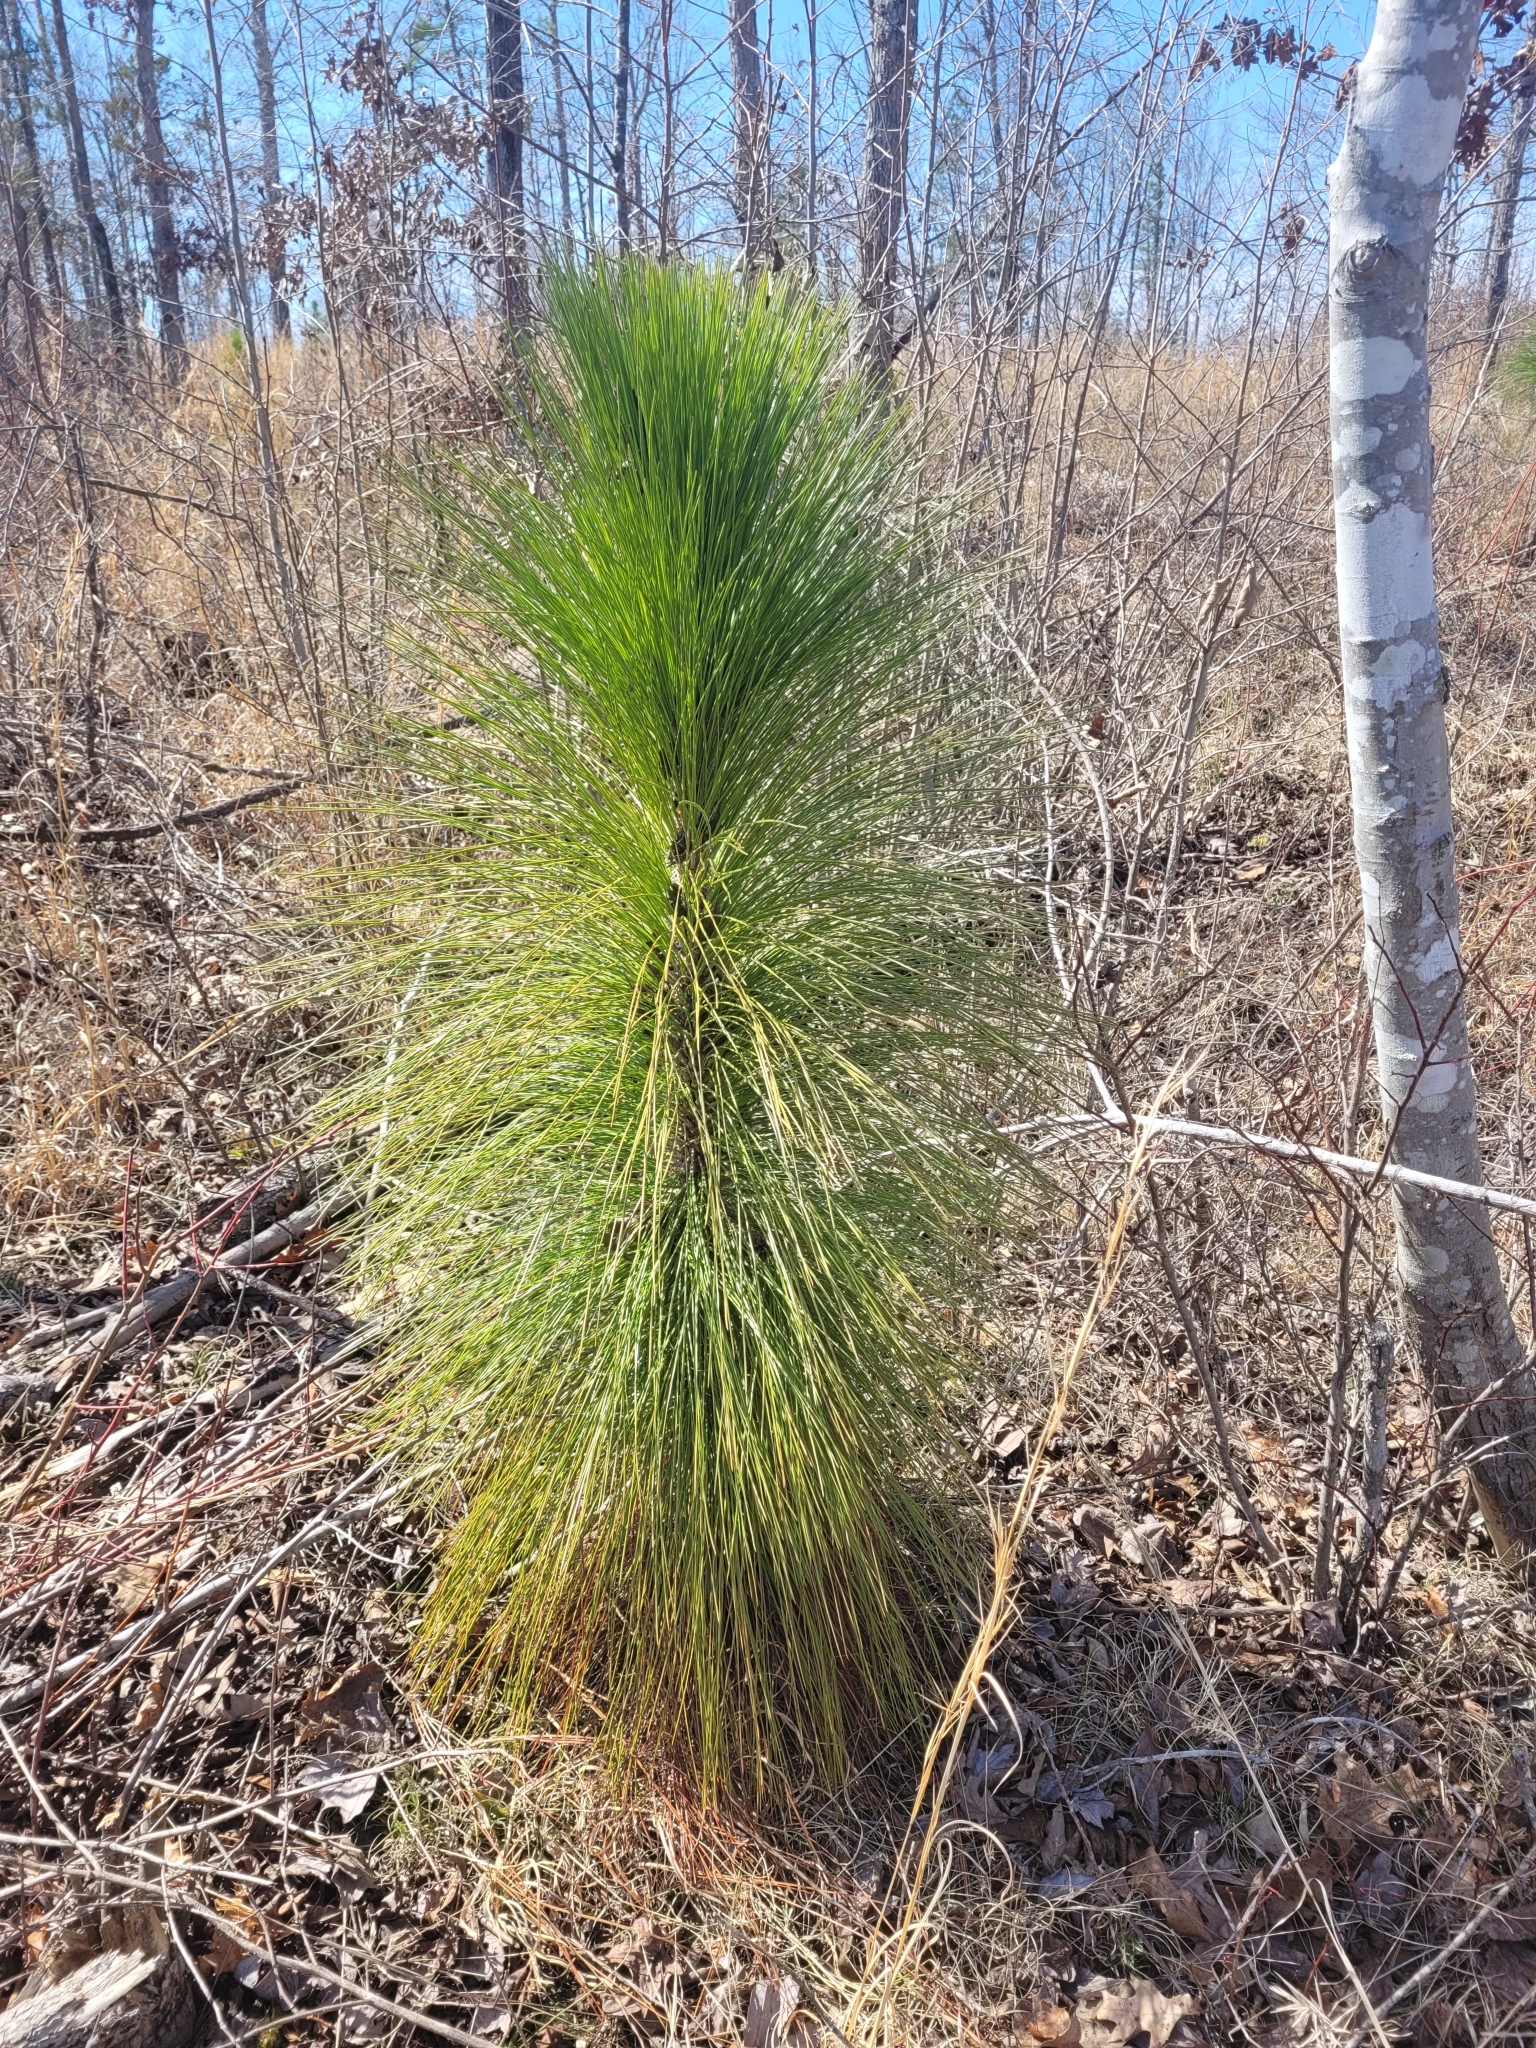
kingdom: Plantae
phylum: Tracheophyta
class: Pinopsida
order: Pinales
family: Pinaceae
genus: Pinus
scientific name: Pinus palustris
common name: Longleaf pine
